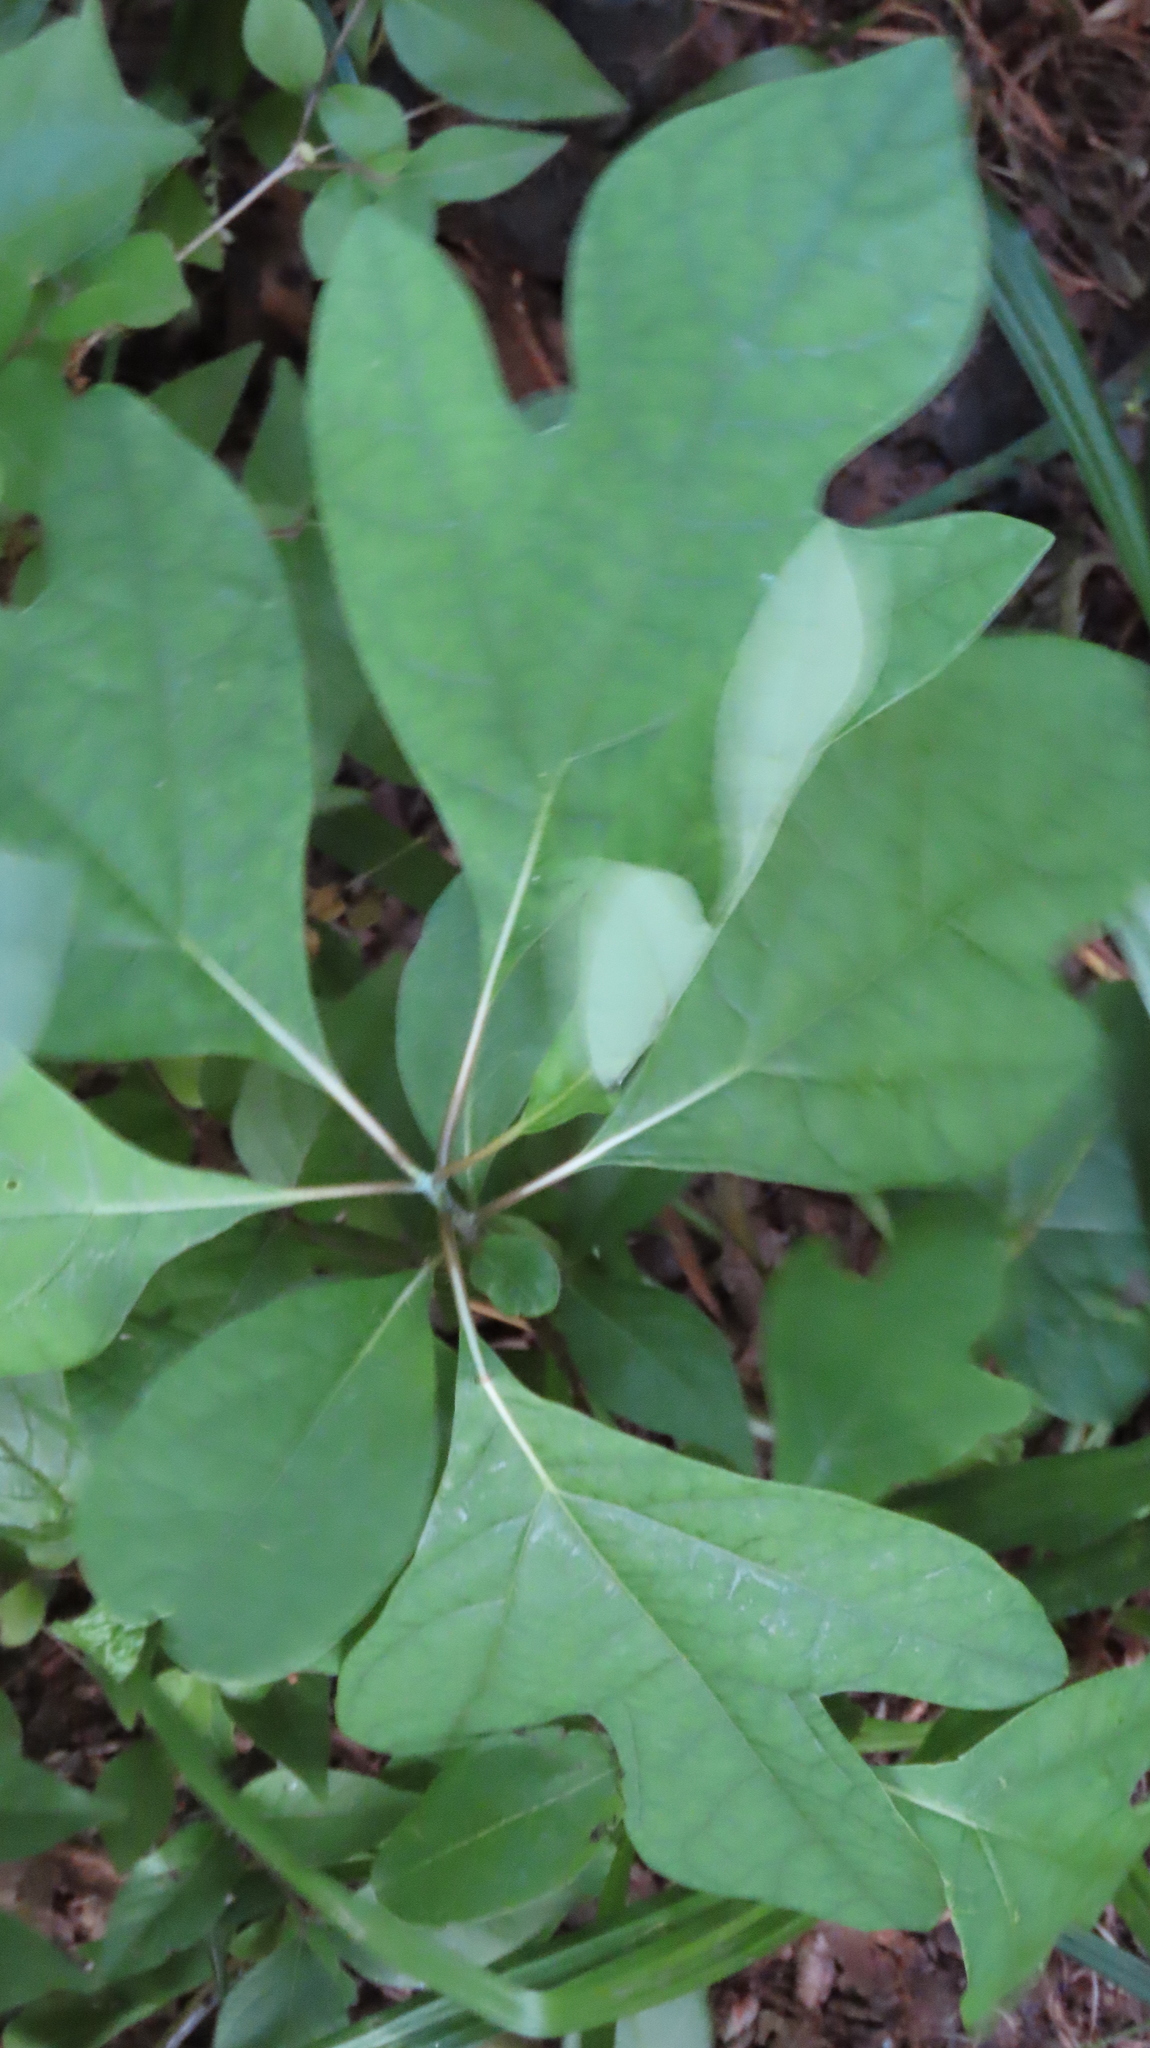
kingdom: Plantae
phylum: Tracheophyta
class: Magnoliopsida
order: Laurales
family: Lauraceae
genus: Sassafras
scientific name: Sassafras albidum
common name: Sassafras
